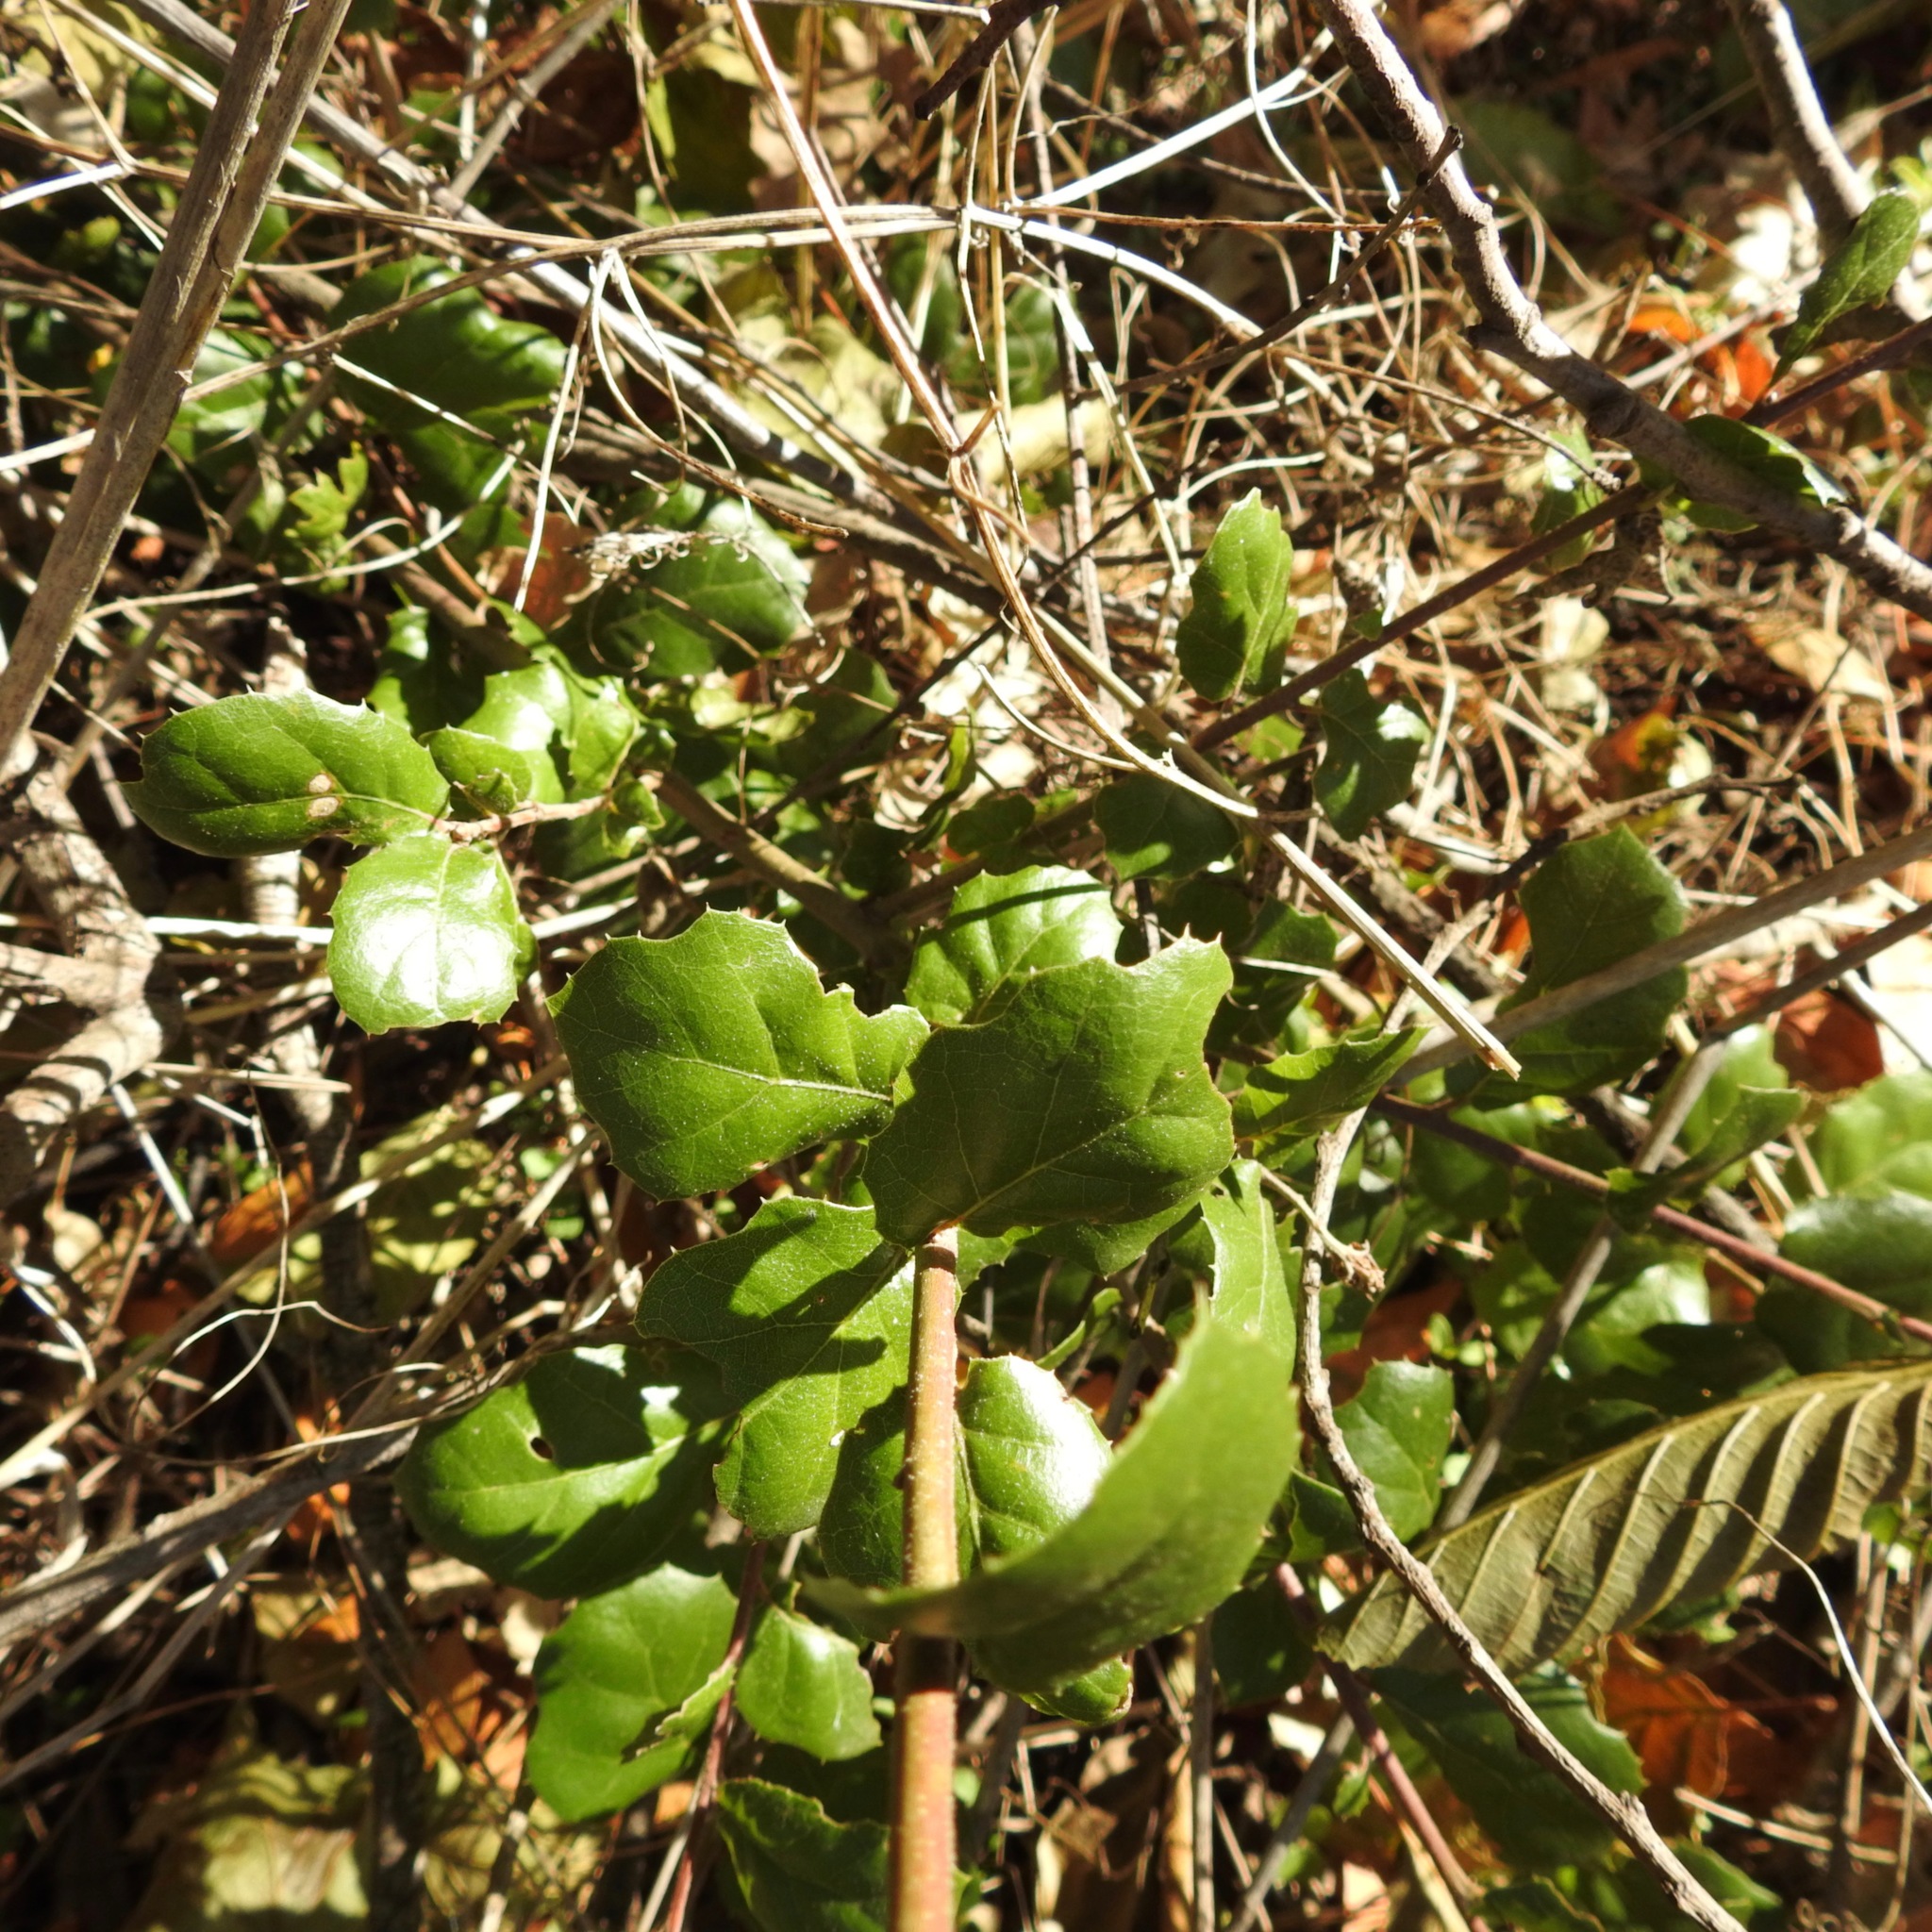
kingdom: Plantae
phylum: Tracheophyta
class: Magnoliopsida
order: Fagales
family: Fagaceae
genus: Quercus
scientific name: Quercus agrifolia
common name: California live oak
